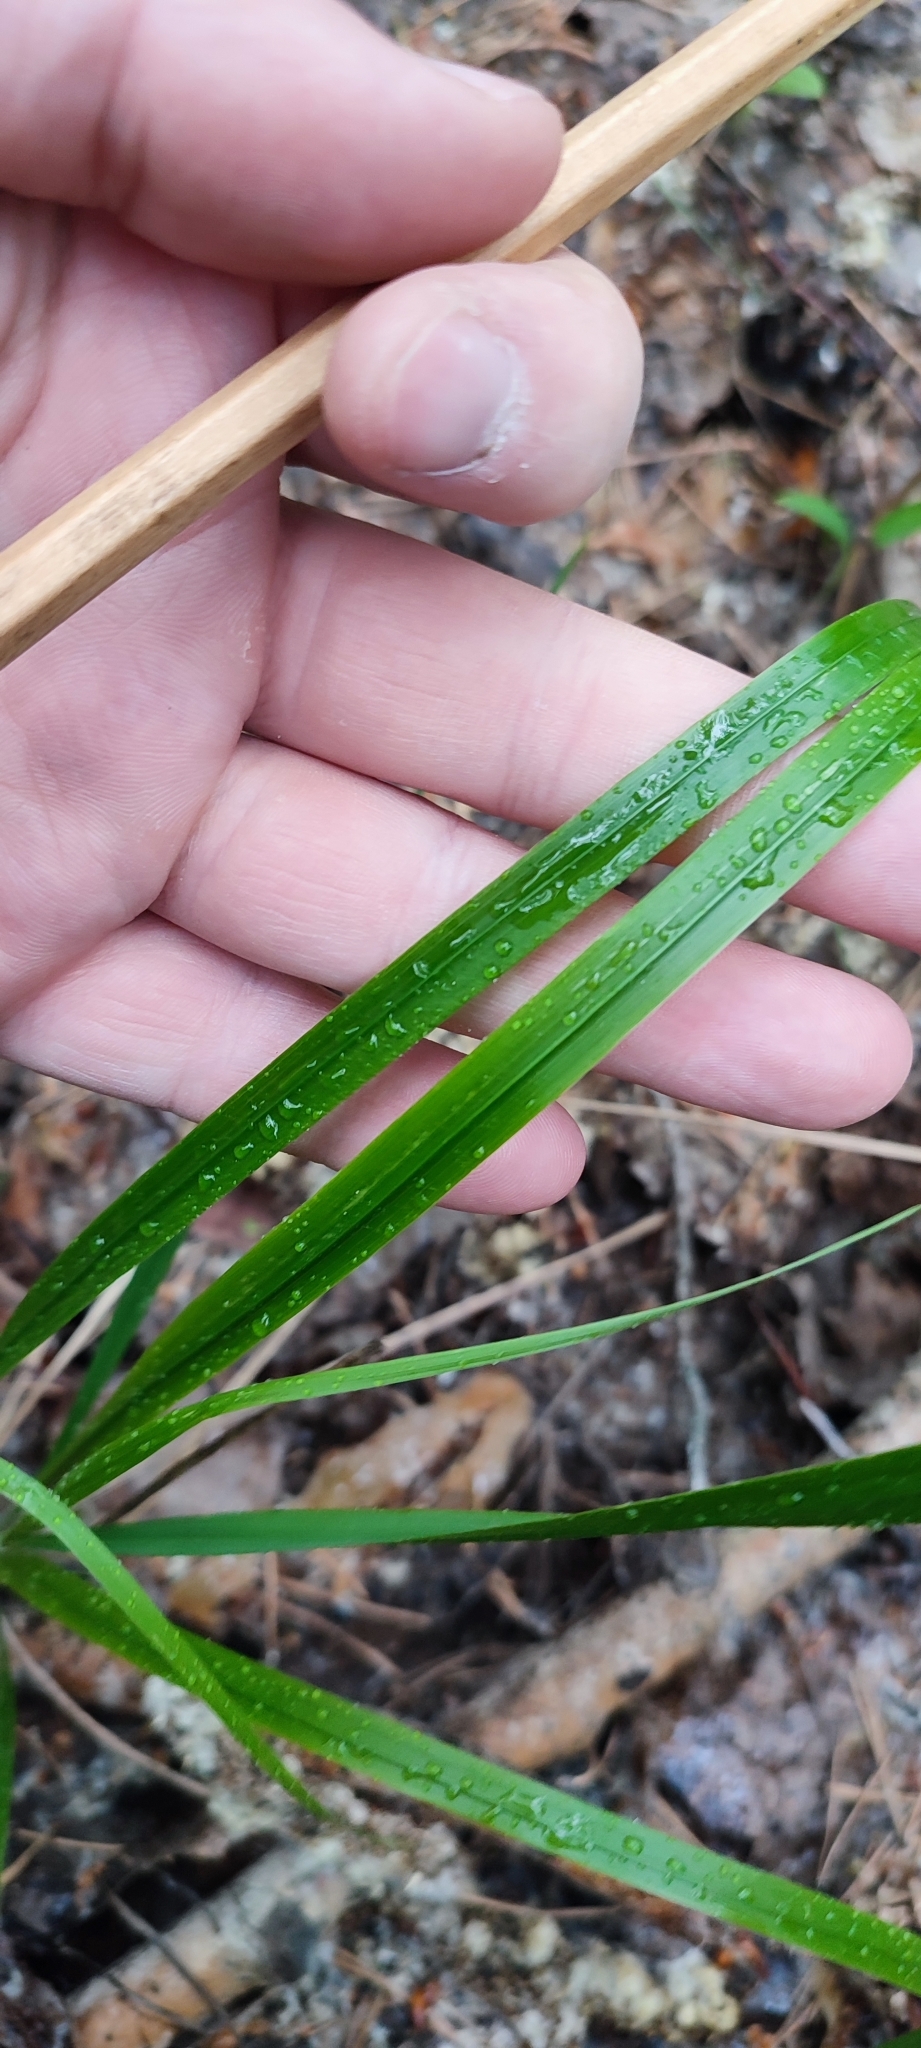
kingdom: Plantae
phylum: Tracheophyta
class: Liliopsida
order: Poales
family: Poaceae
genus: Calamagrostis
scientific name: Calamagrostis arundinacea
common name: Metskastik
